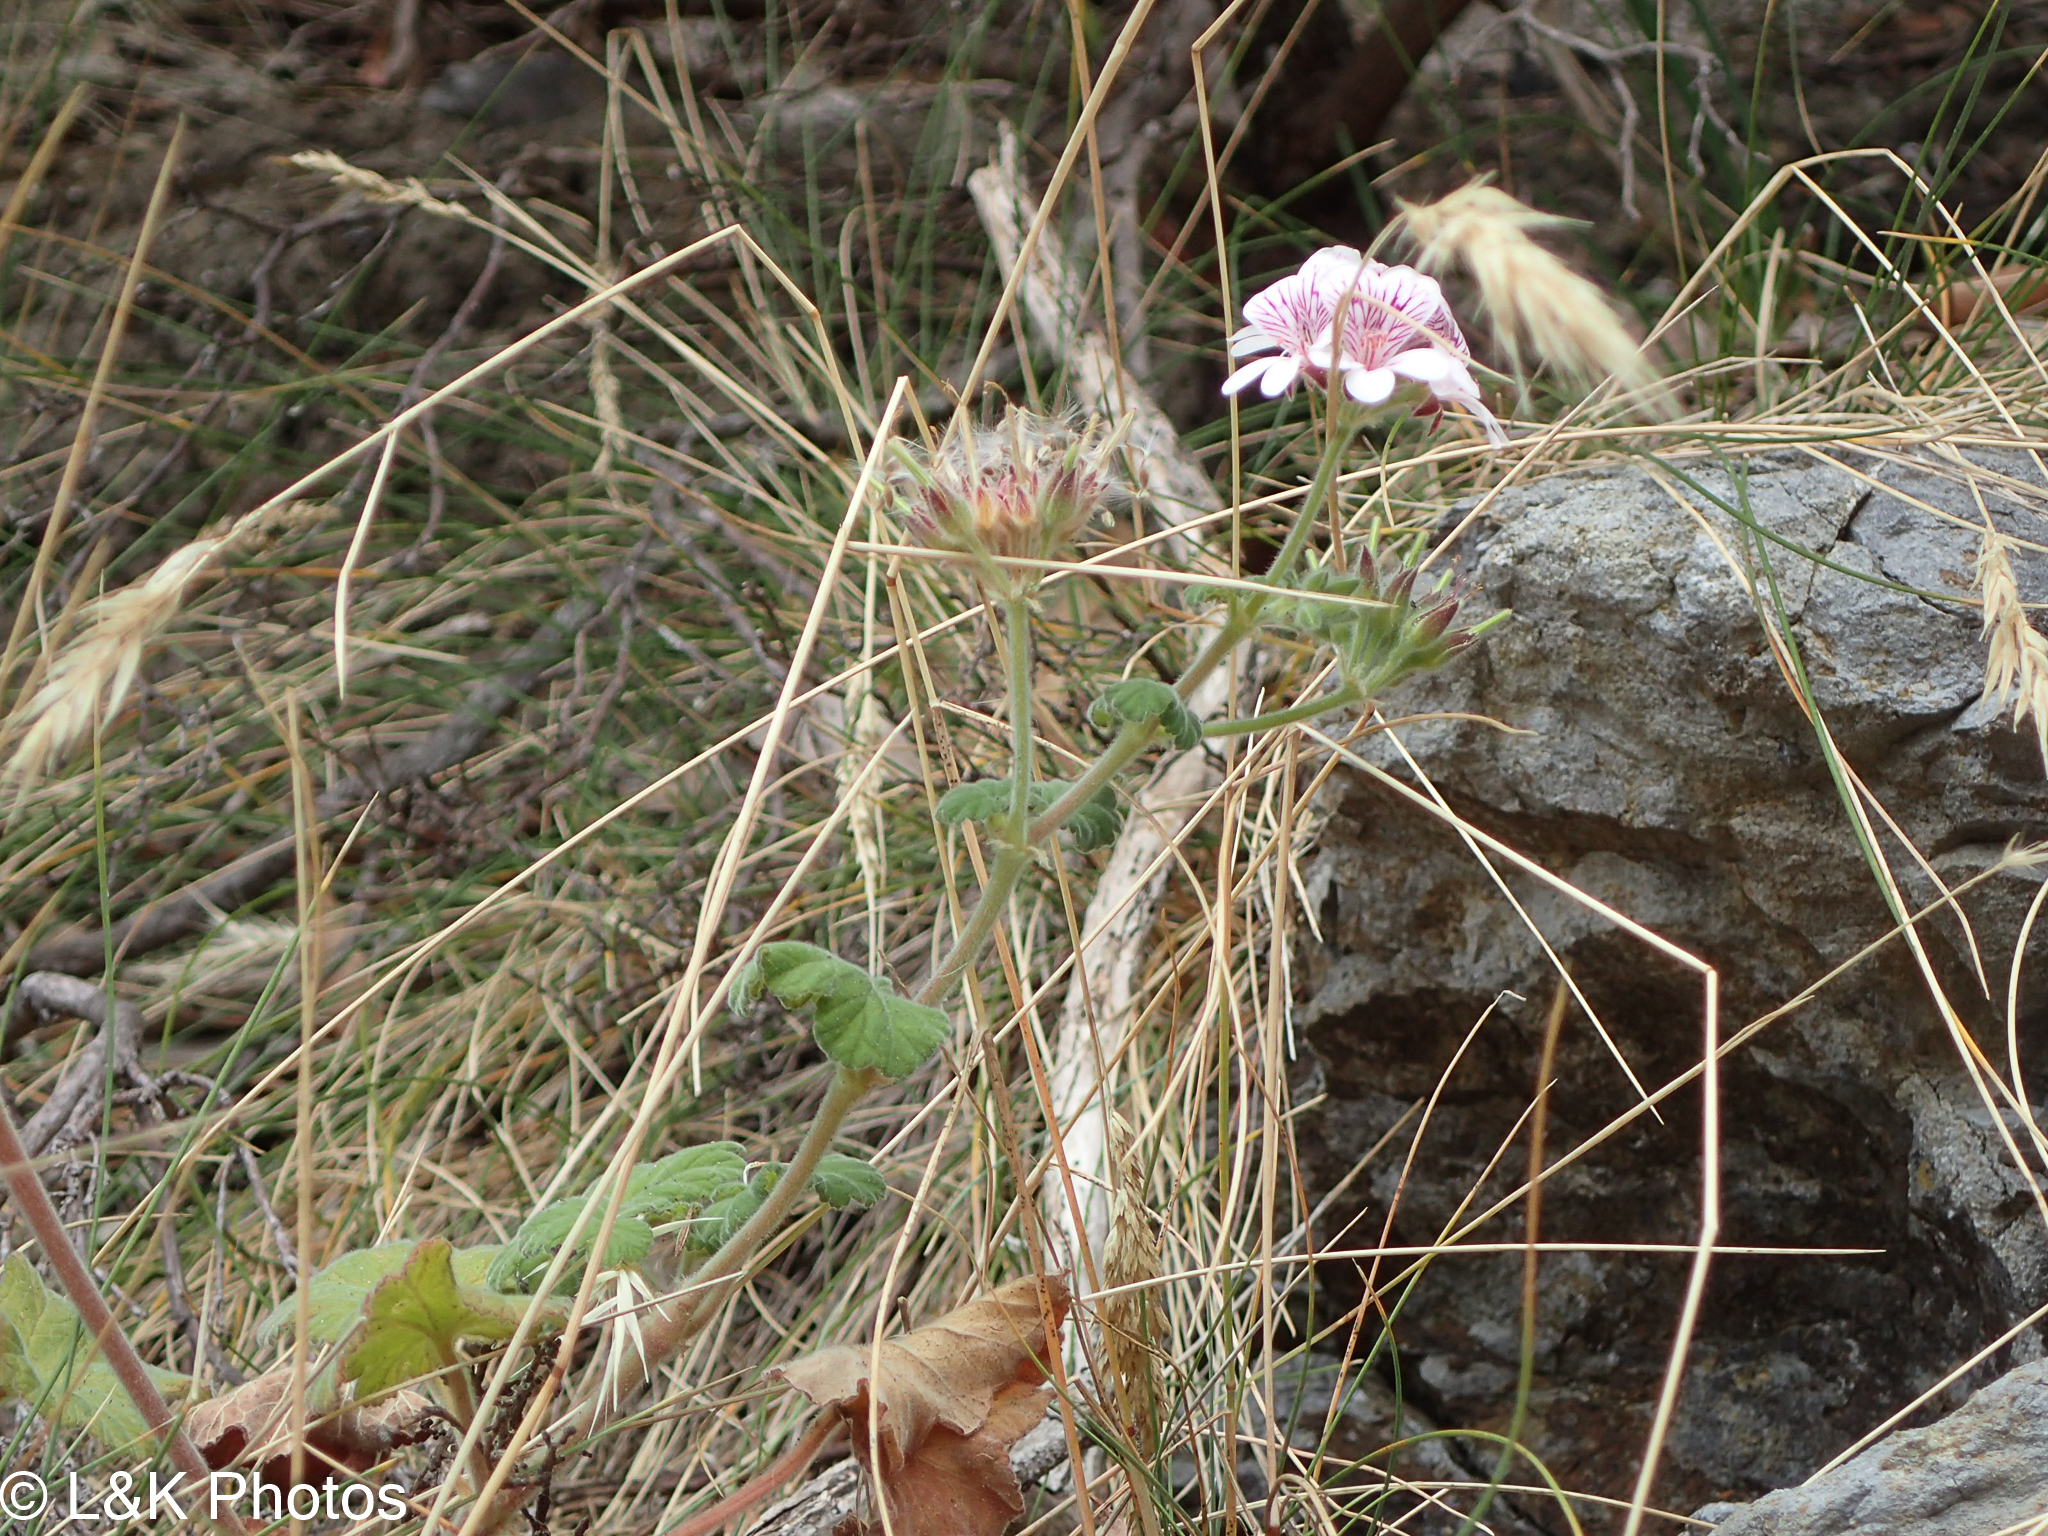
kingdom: Plantae
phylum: Tracheophyta
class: Magnoliopsida
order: Geraniales
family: Geraniaceae
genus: Pelargonium
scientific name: Pelargonium australe
